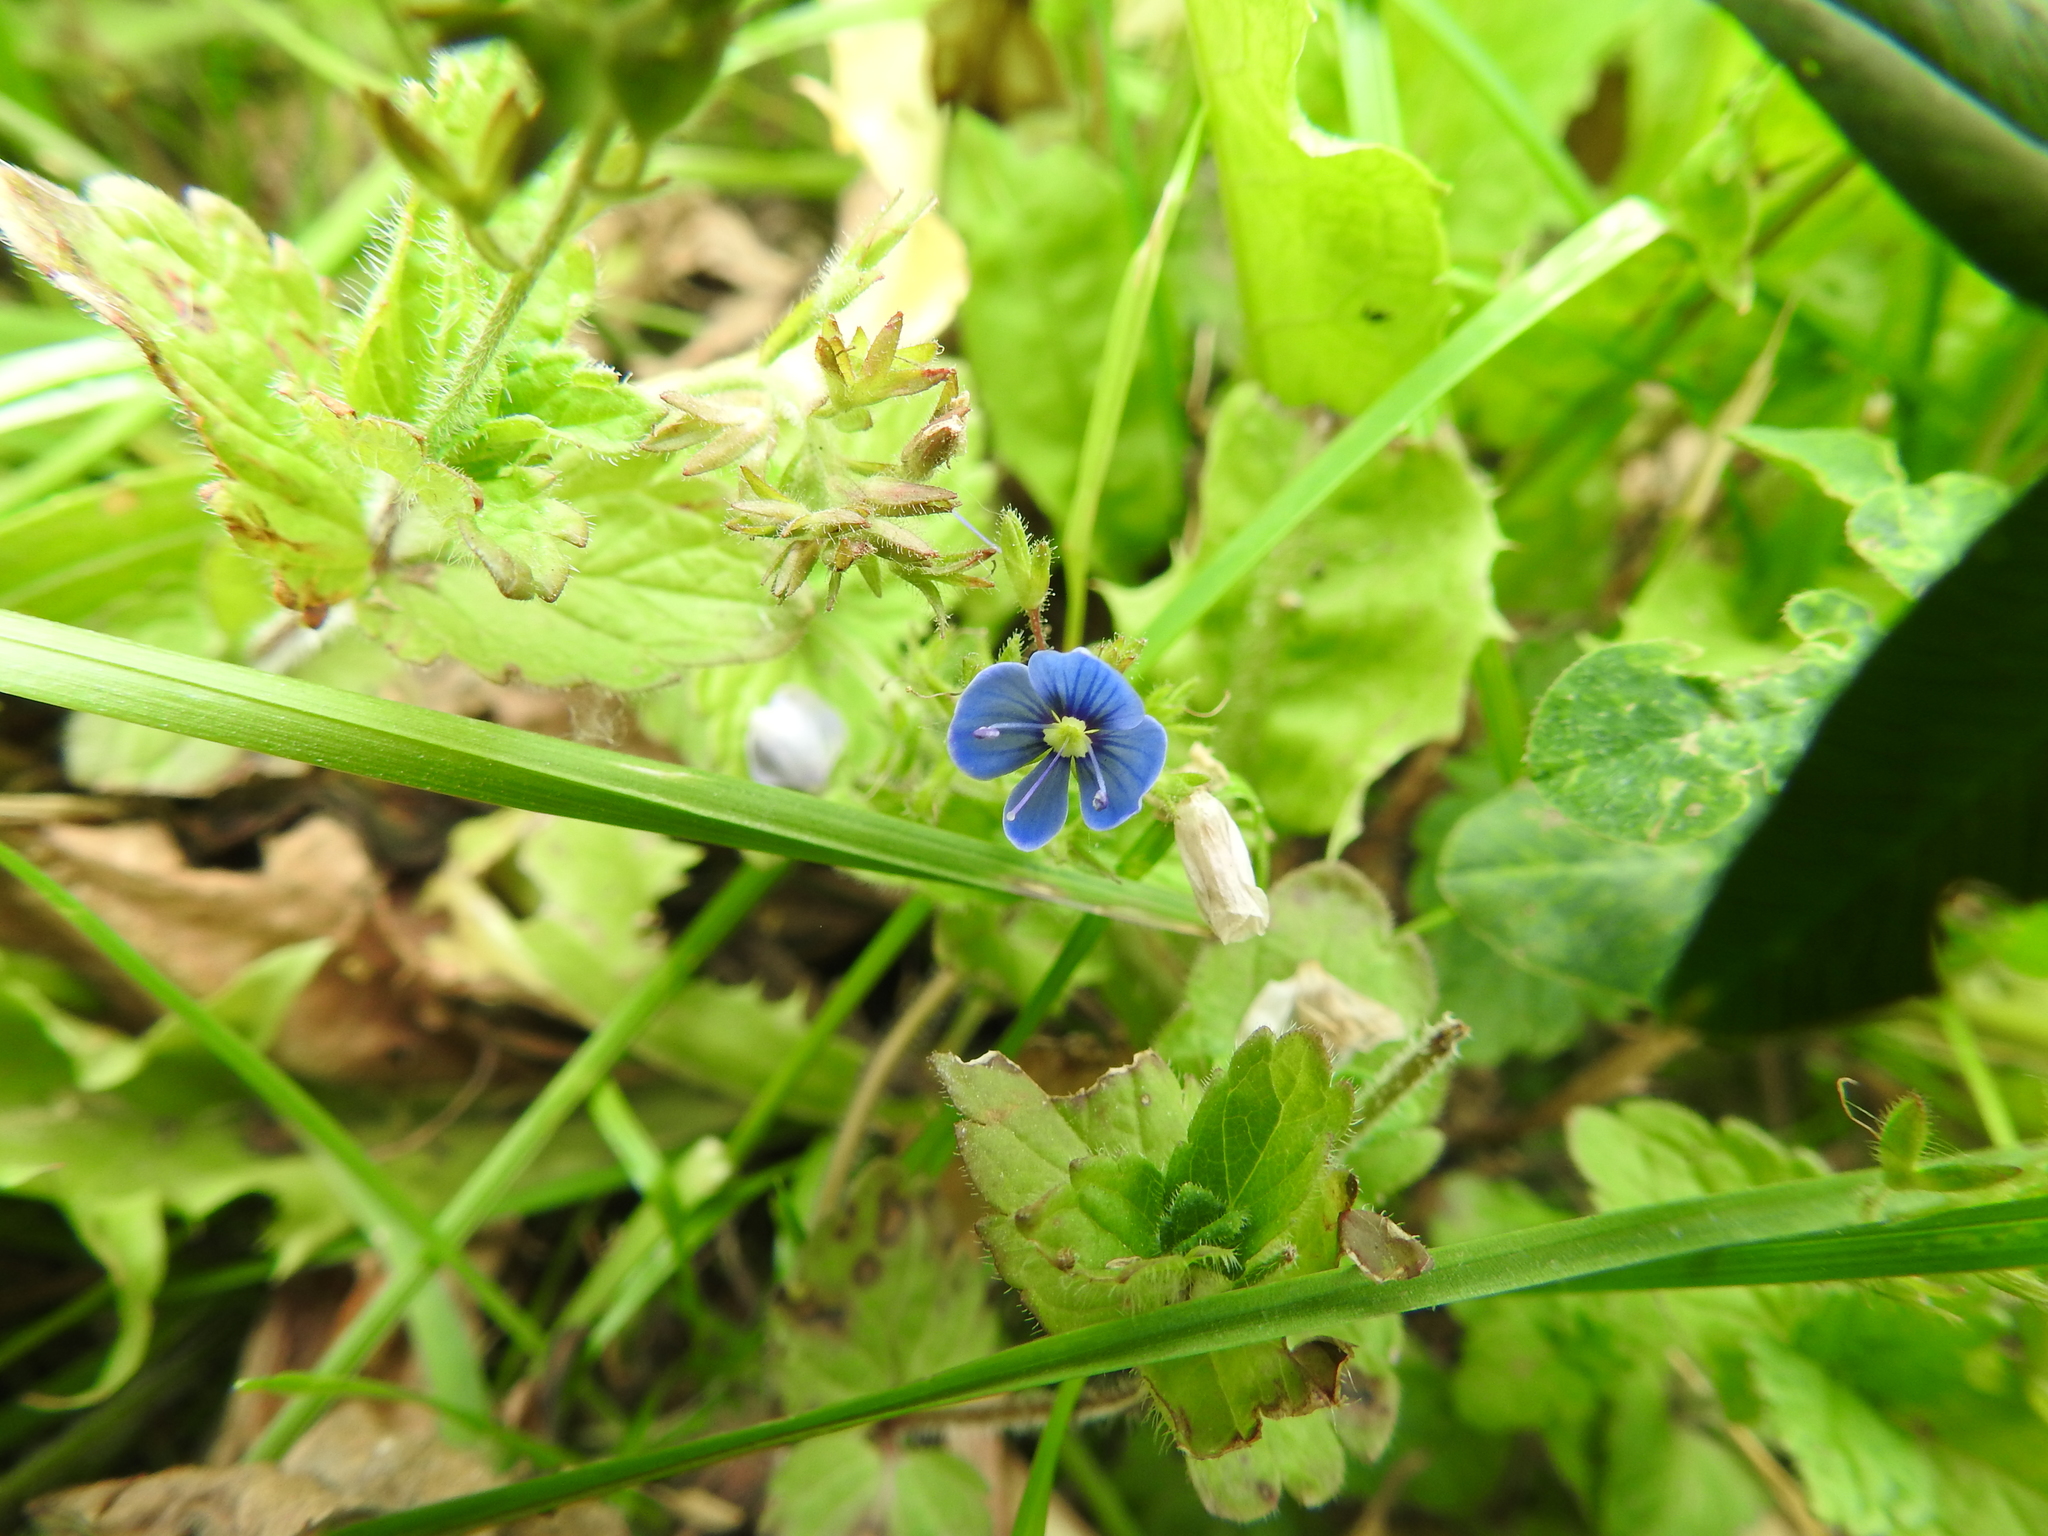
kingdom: Plantae
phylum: Tracheophyta
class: Magnoliopsida
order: Lamiales
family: Plantaginaceae
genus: Veronica
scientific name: Veronica chamaedrys
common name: Germander speedwell
